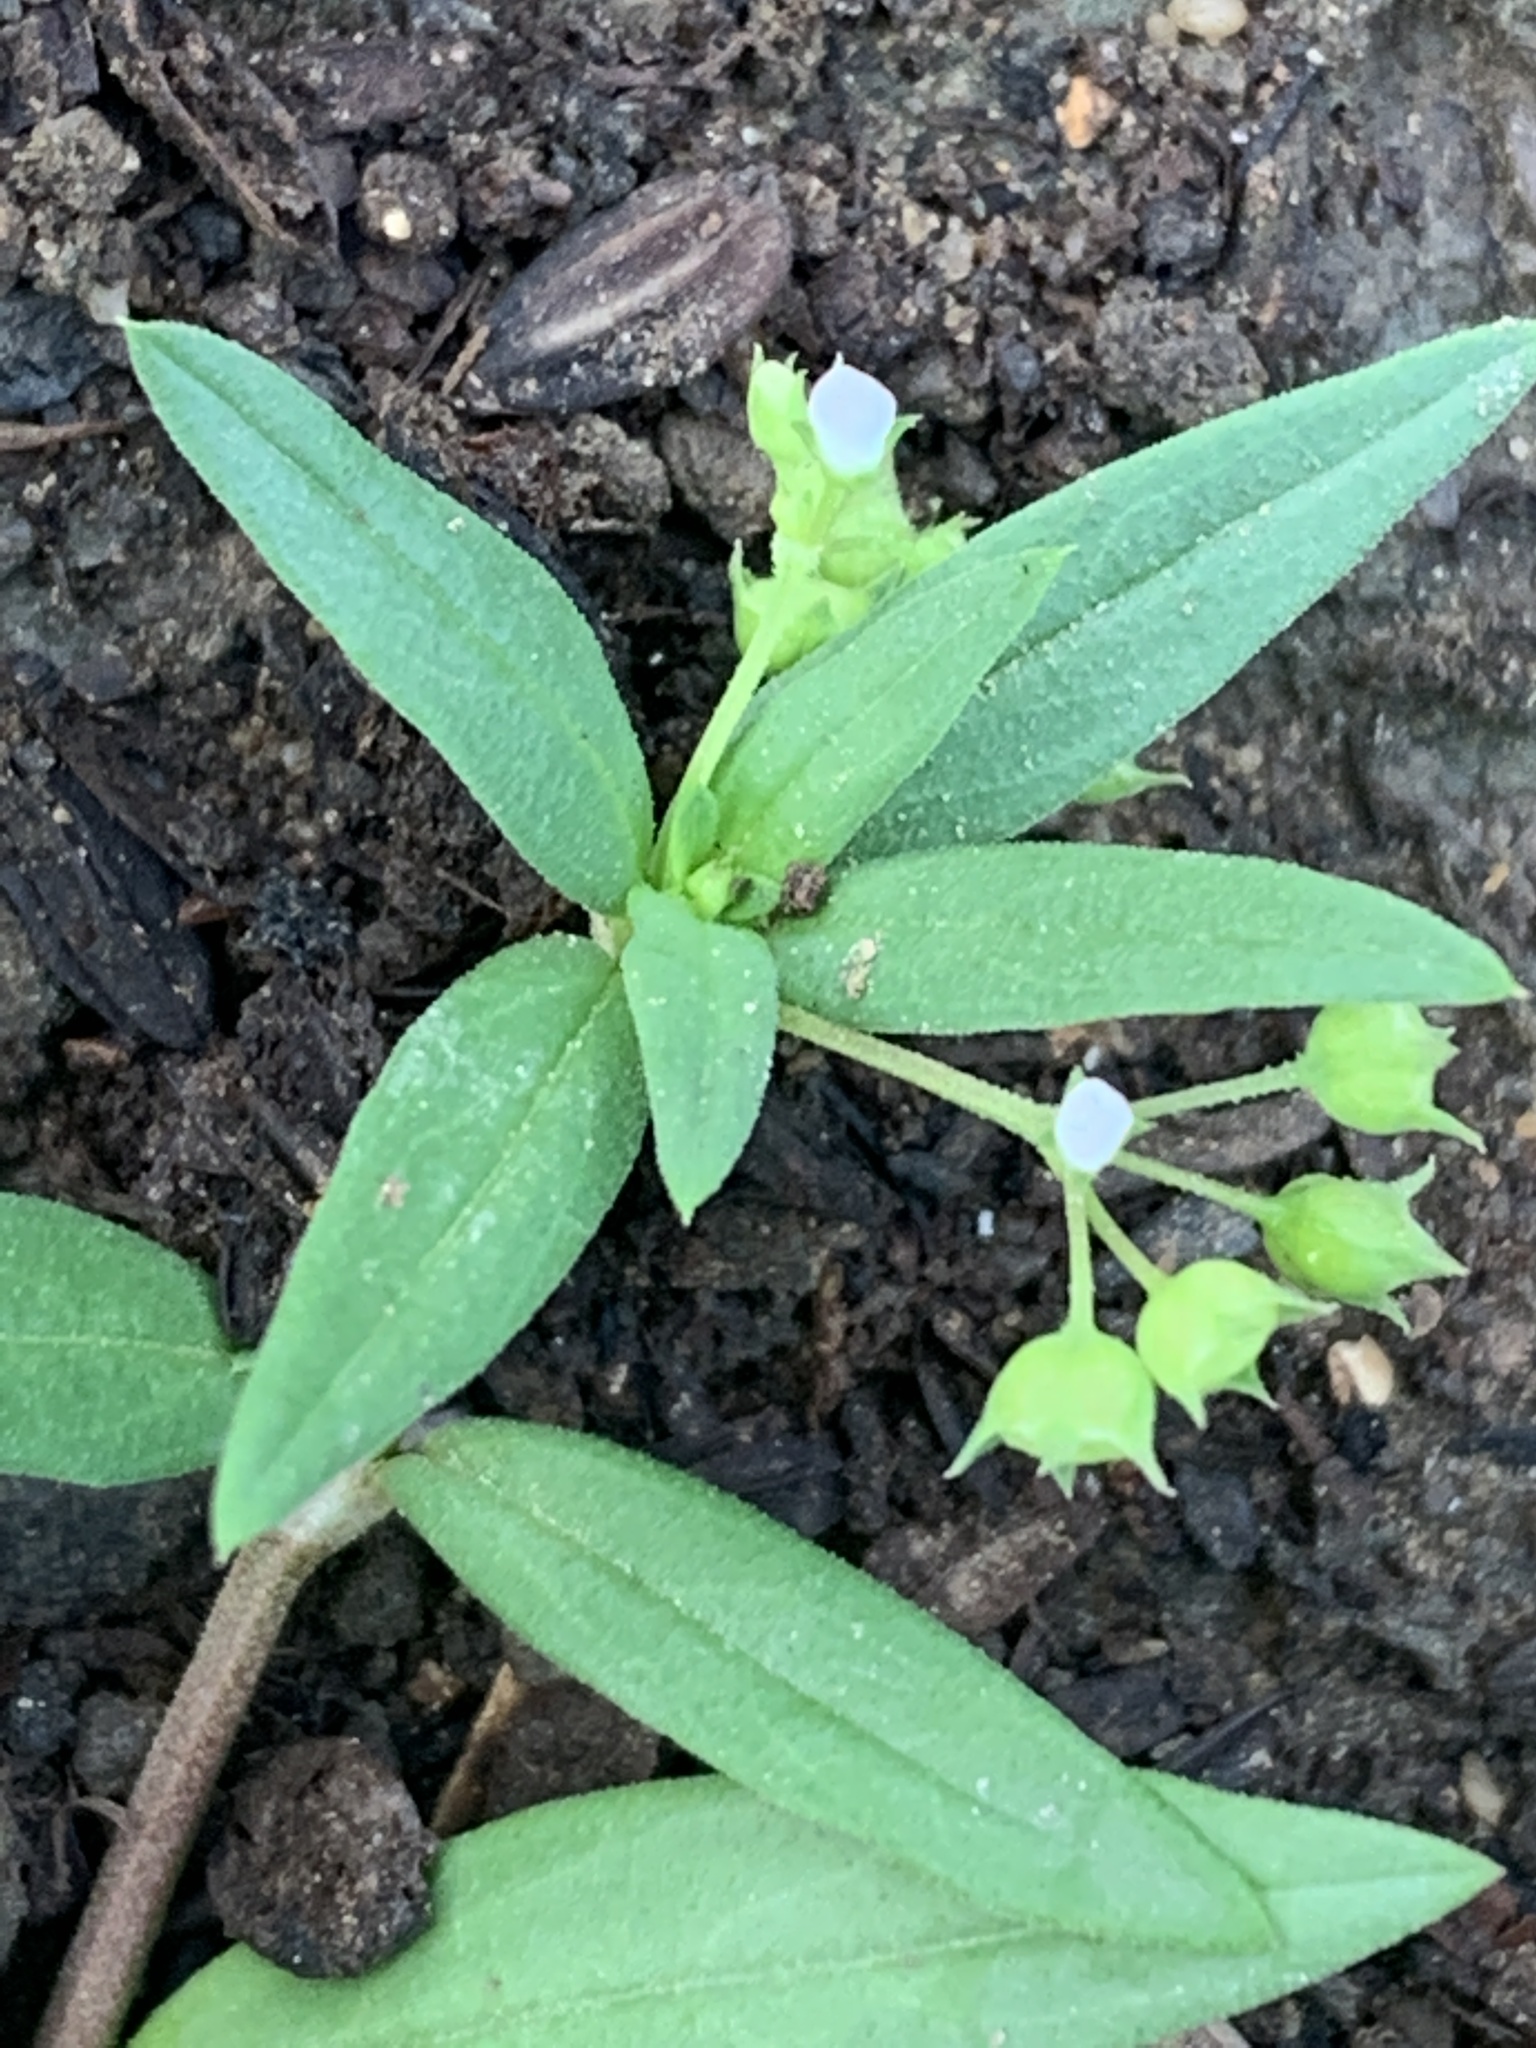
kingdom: Plantae
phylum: Tracheophyta
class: Magnoliopsida
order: Gentianales
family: Rubiaceae
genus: Oldenlandia
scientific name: Oldenlandia corymbosa
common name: Flat-top mille graines
